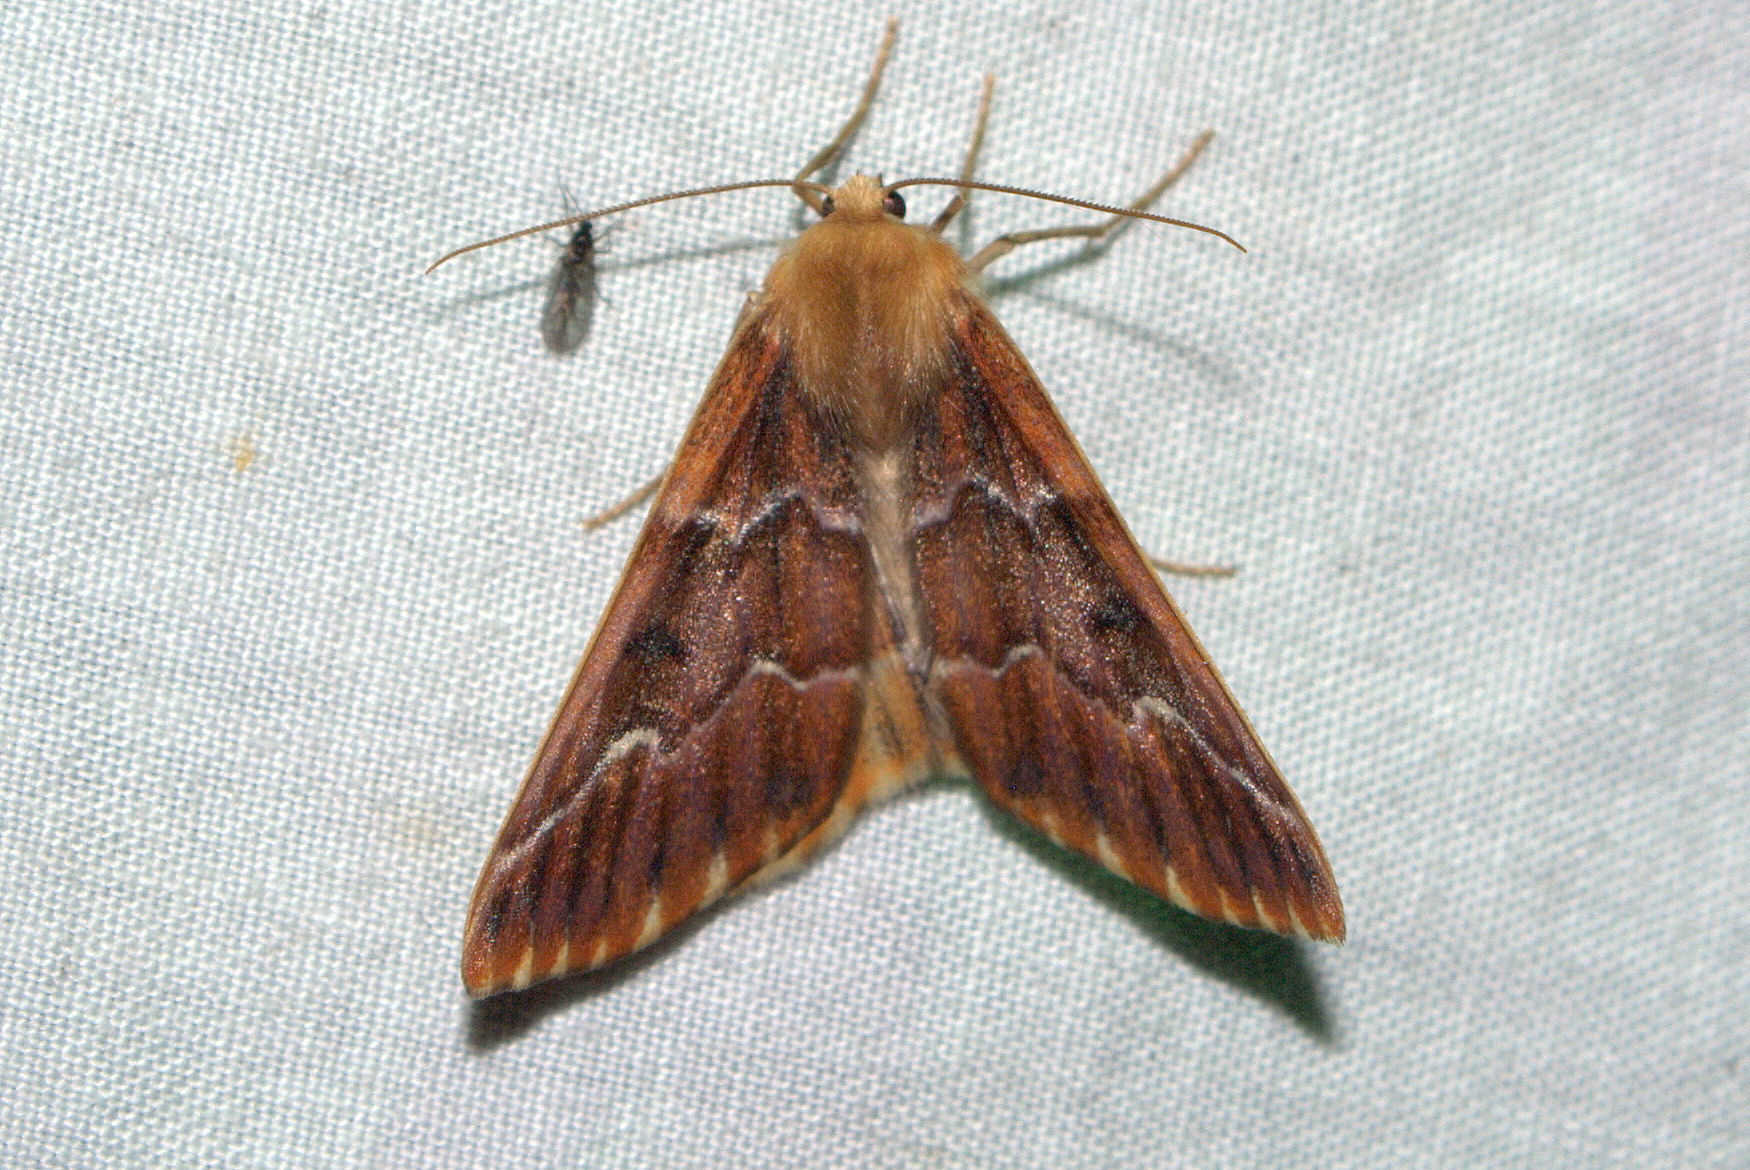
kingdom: Animalia
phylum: Arthropoda
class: Insecta
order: Lepidoptera
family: Geometridae
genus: Caripeta
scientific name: Caripeta aequaliaria
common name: Red girdle moth
